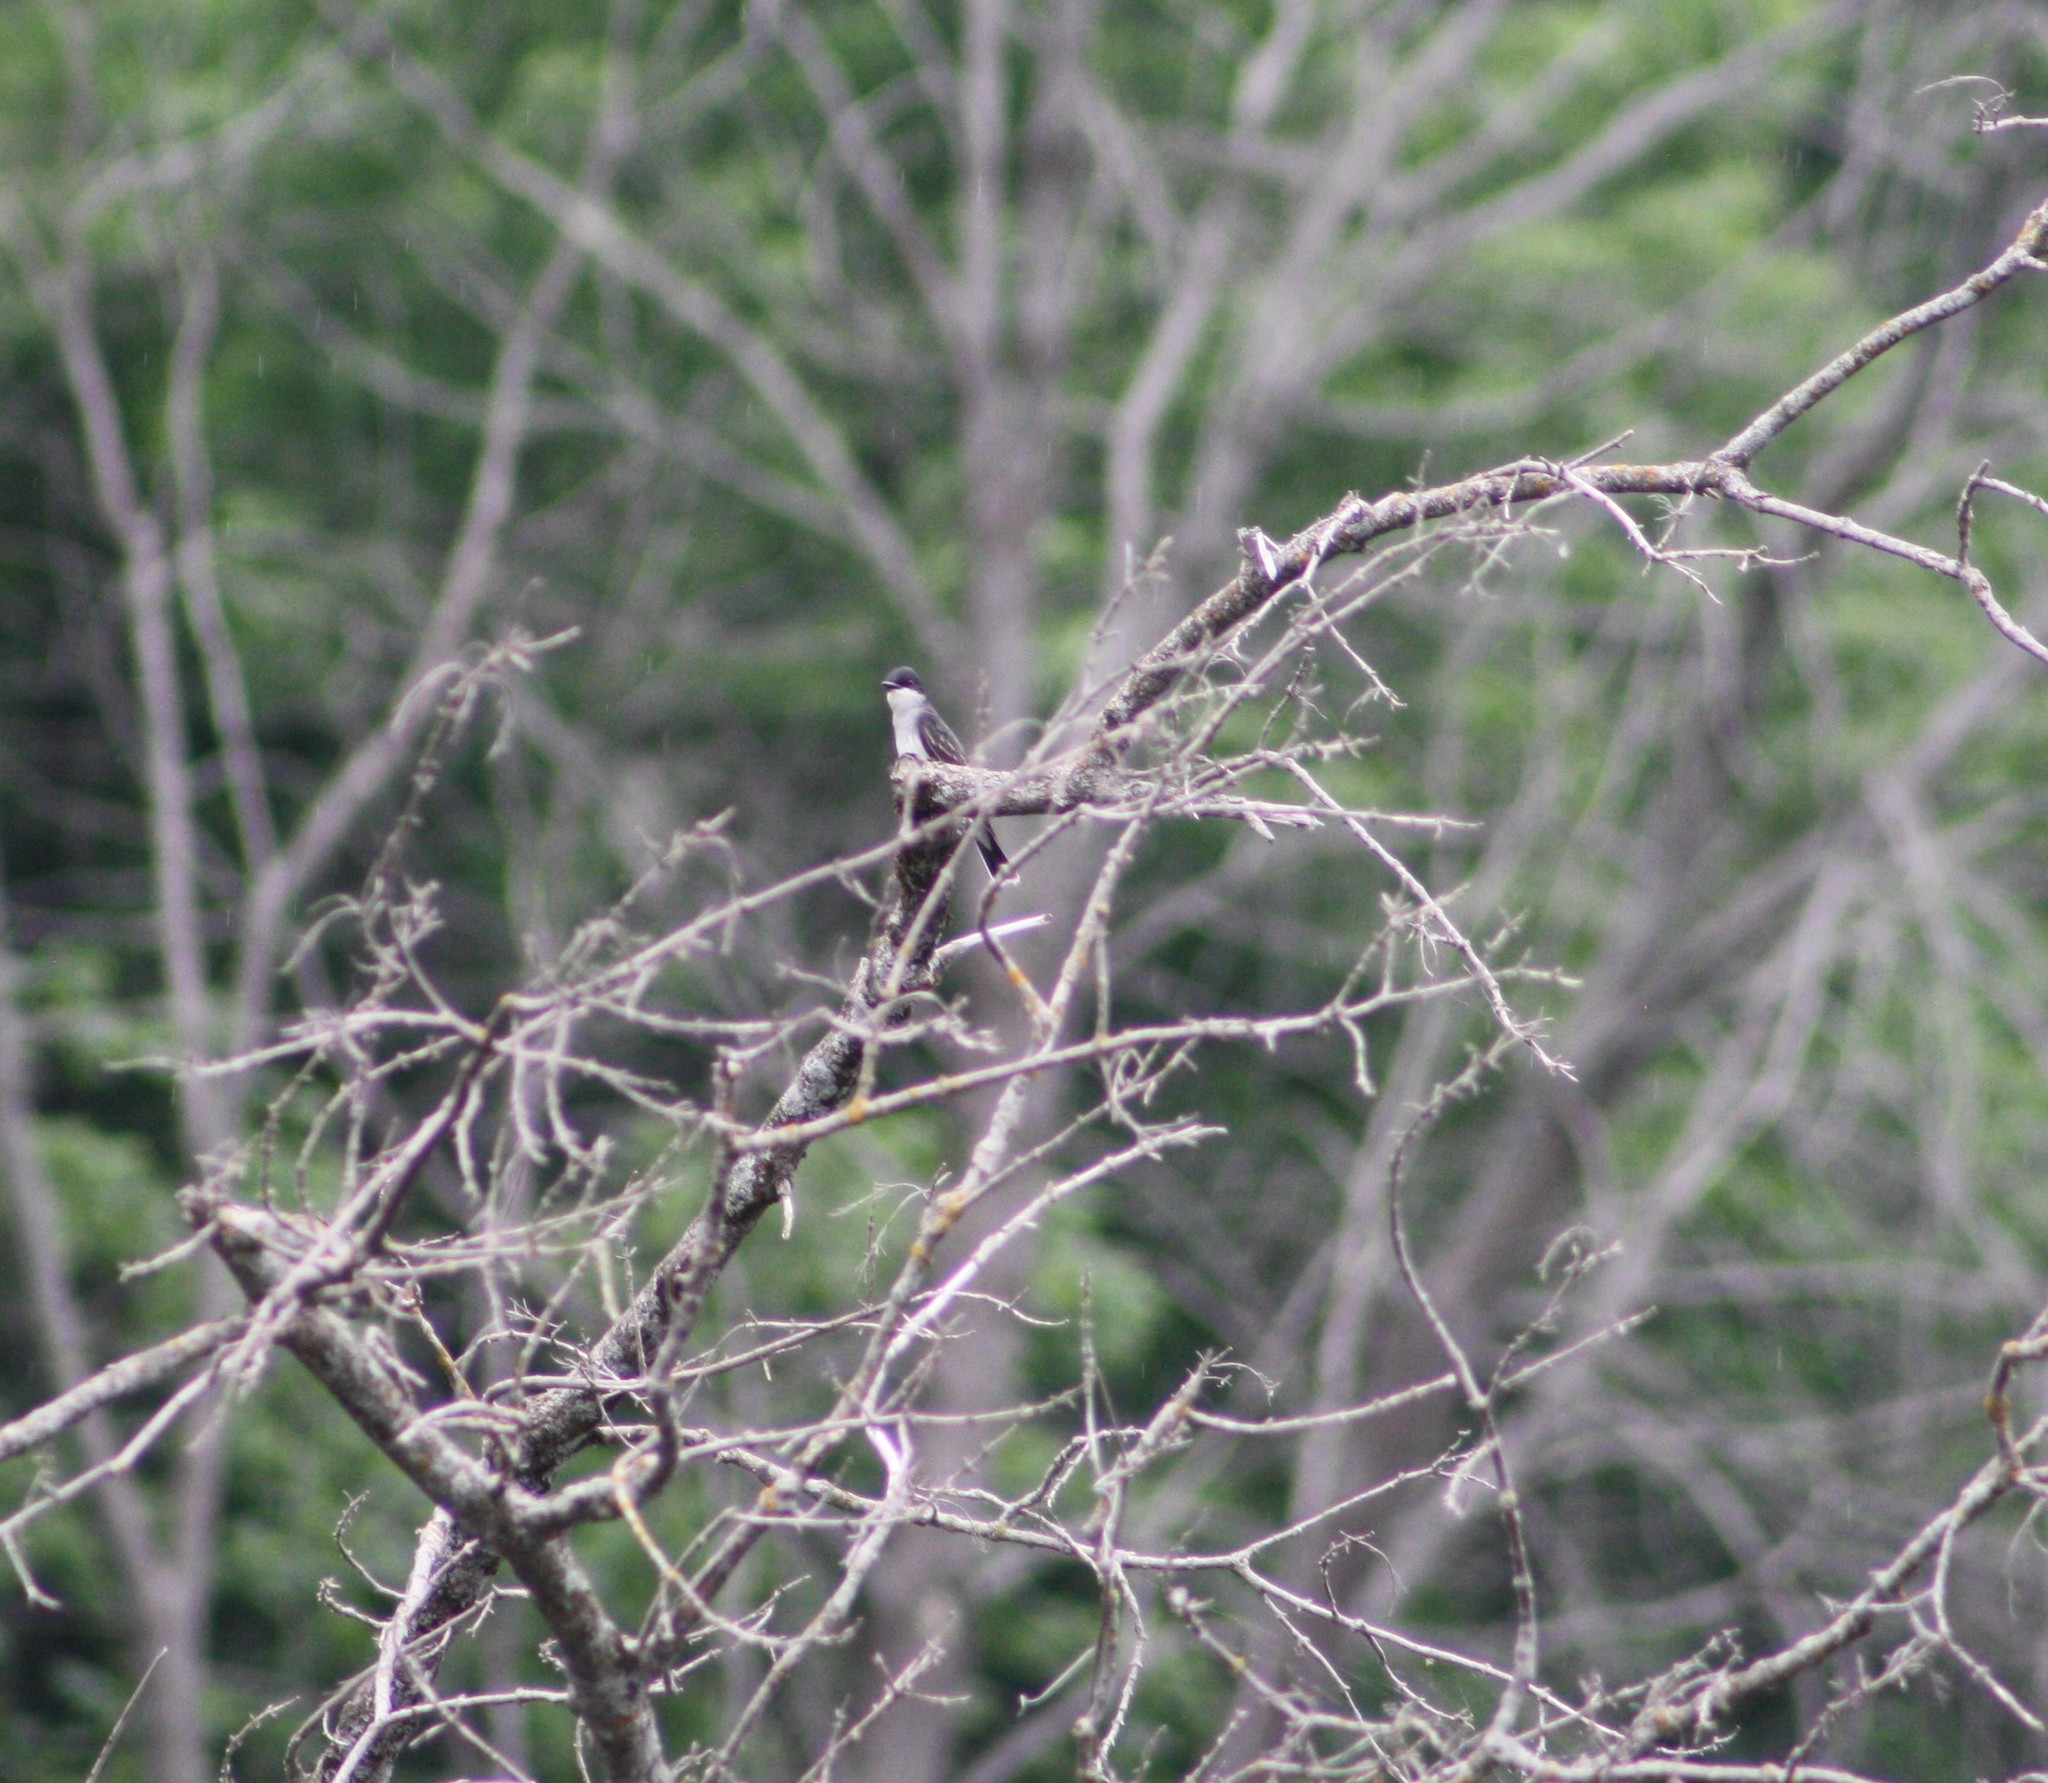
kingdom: Animalia
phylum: Chordata
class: Aves
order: Passeriformes
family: Tyrannidae
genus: Tyrannus
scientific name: Tyrannus tyrannus
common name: Eastern kingbird
